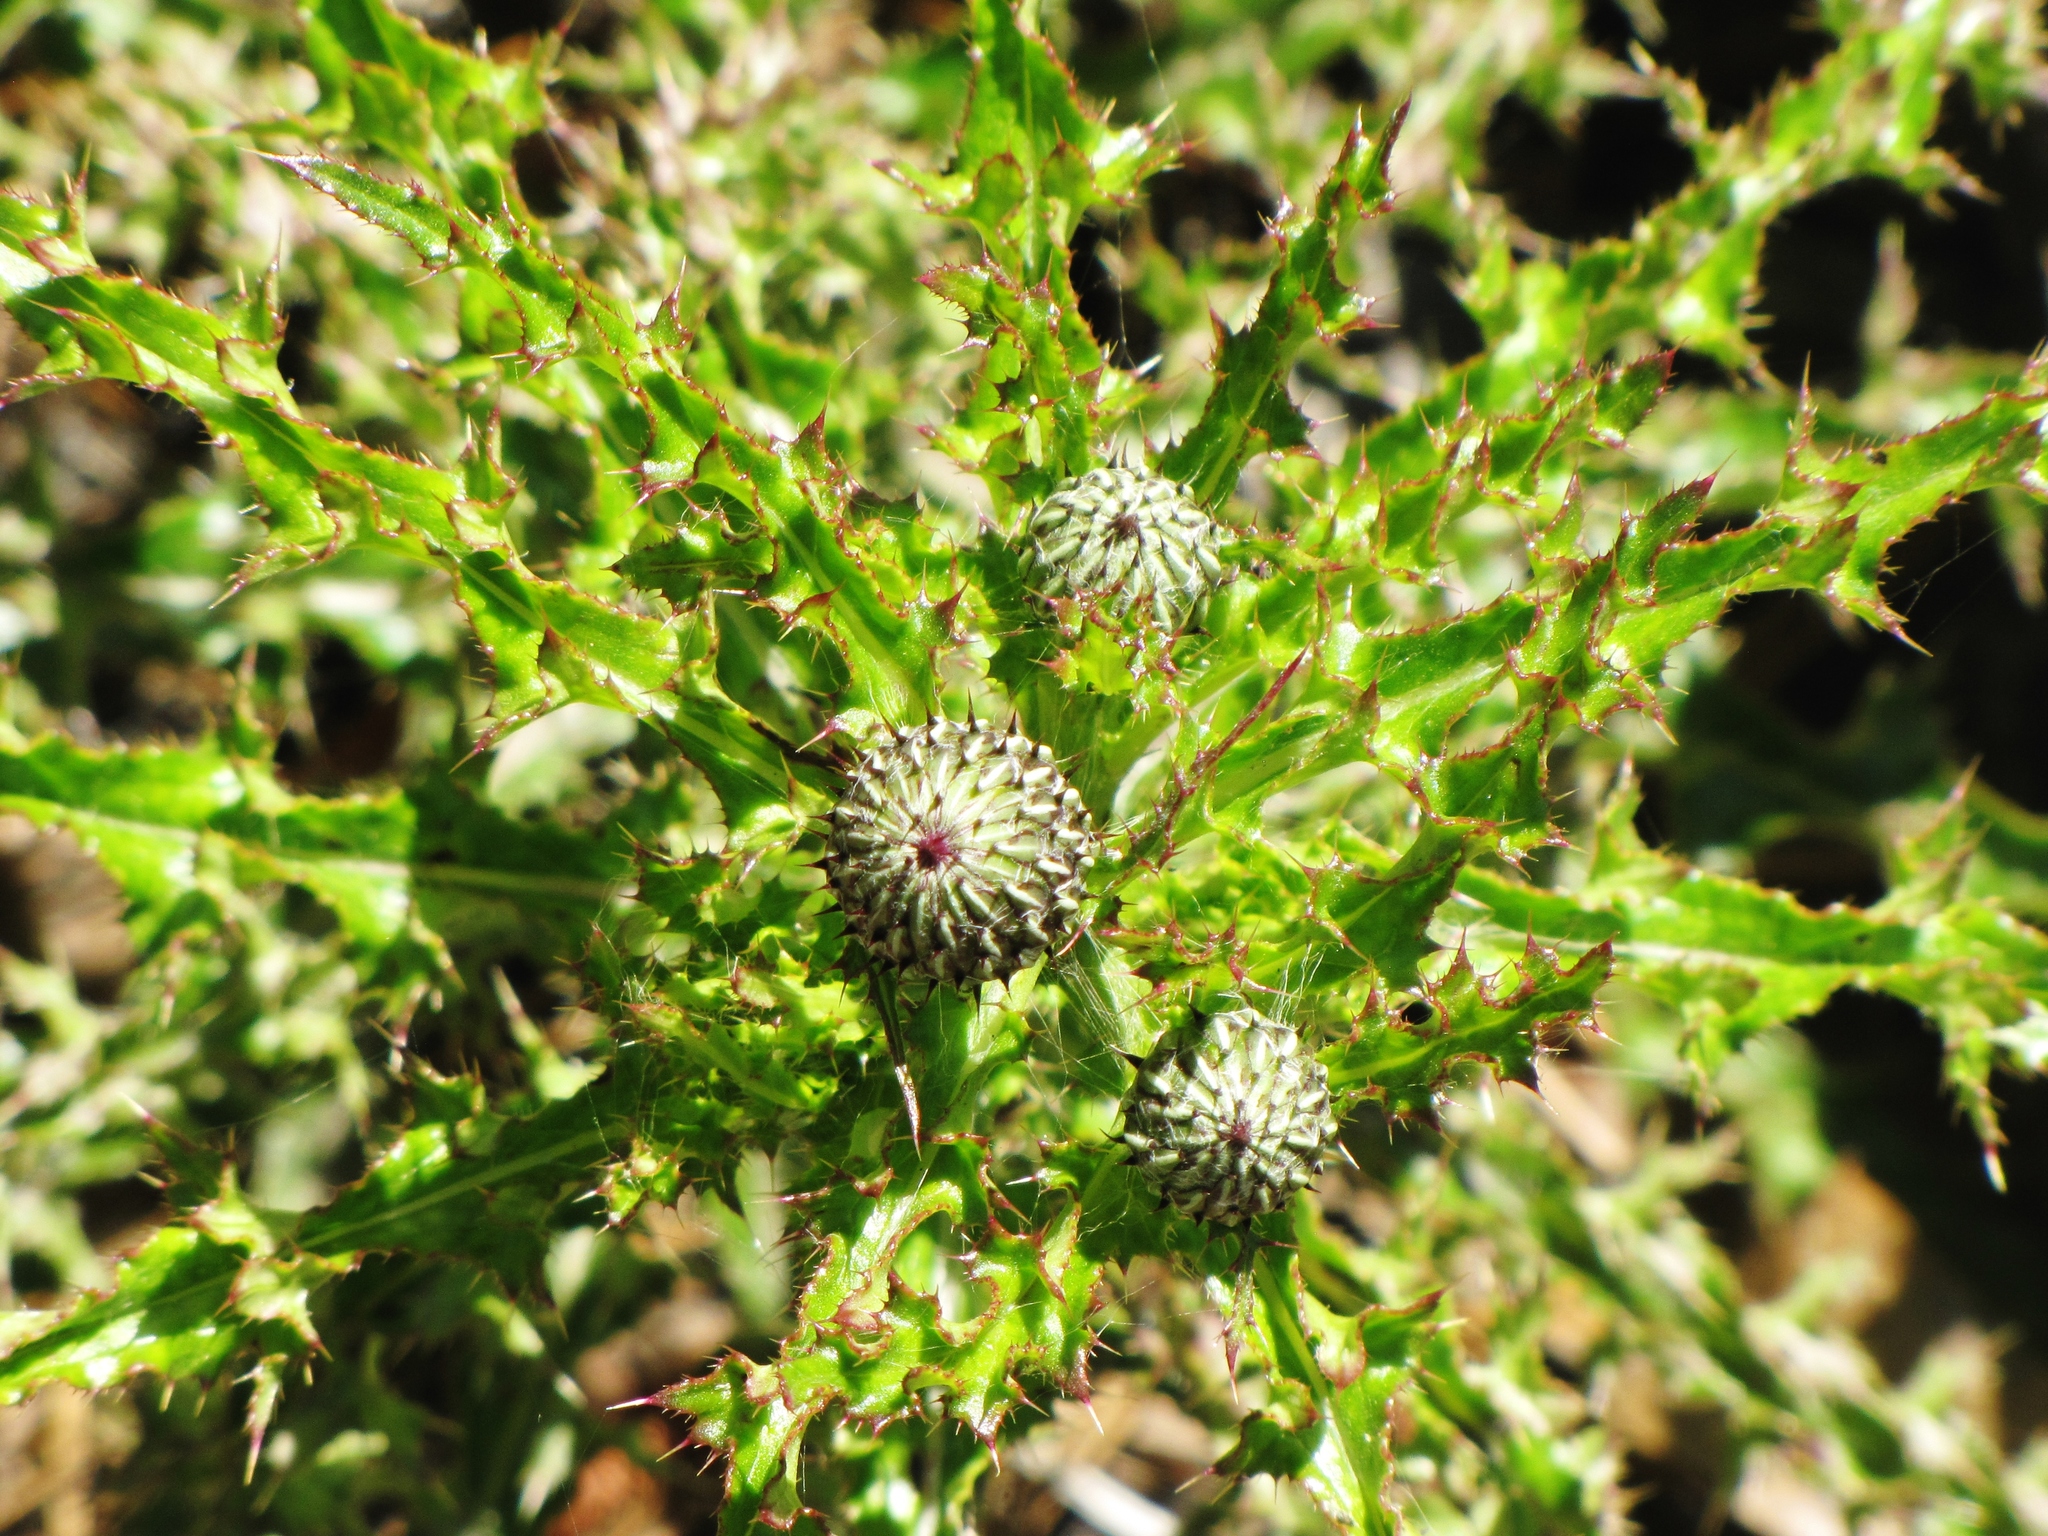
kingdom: Plantae
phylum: Tracheophyta
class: Magnoliopsida
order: Asterales
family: Asteraceae
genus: Cirsium
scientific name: Cirsium repandum
